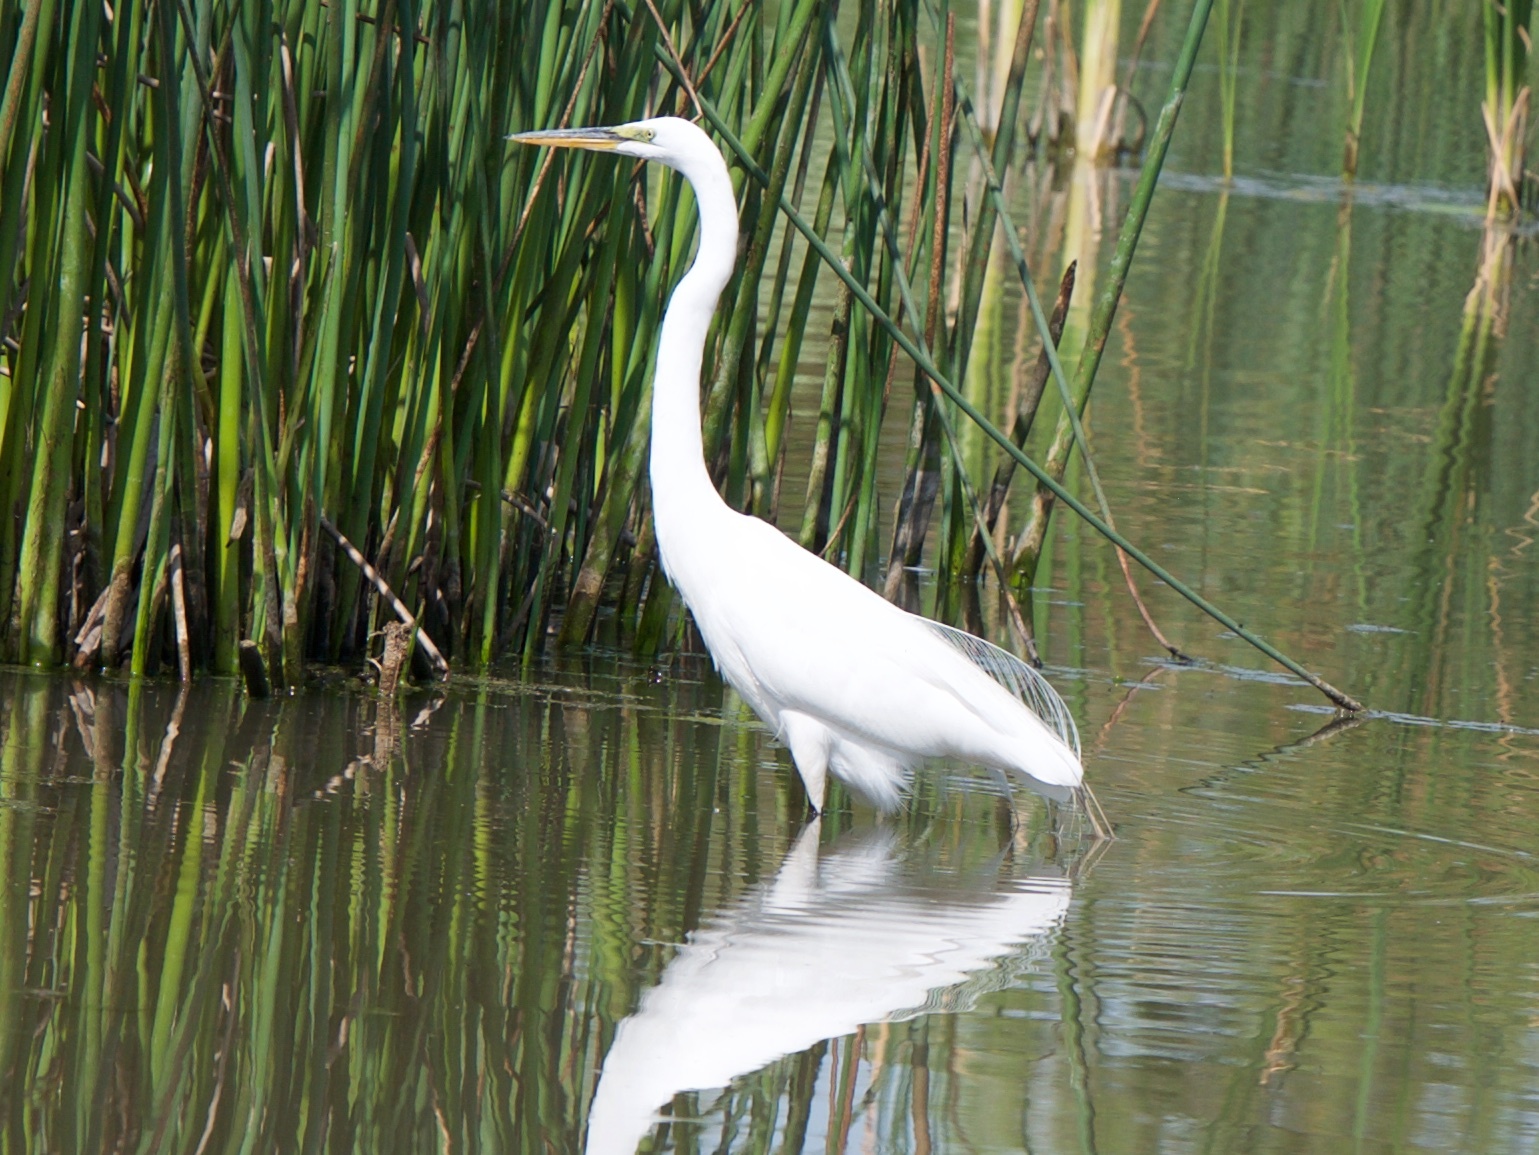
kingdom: Animalia
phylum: Chordata
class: Aves
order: Pelecaniformes
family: Ardeidae
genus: Ardea
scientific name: Ardea alba
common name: Great egret
